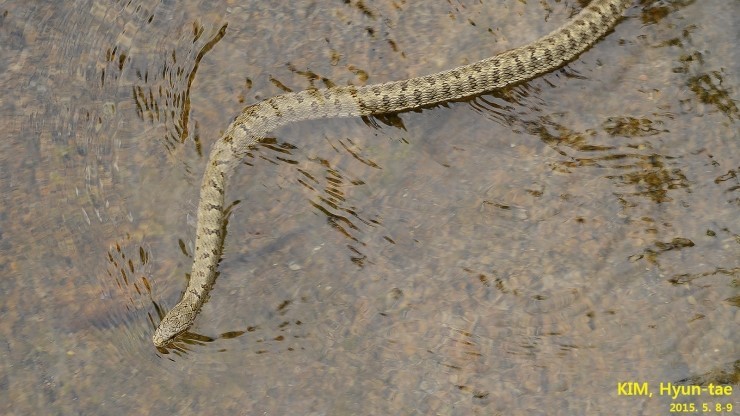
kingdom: Animalia
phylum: Chordata
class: Squamata
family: Colubridae
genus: Elaphe
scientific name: Elaphe dione
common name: Dione ratsnake
